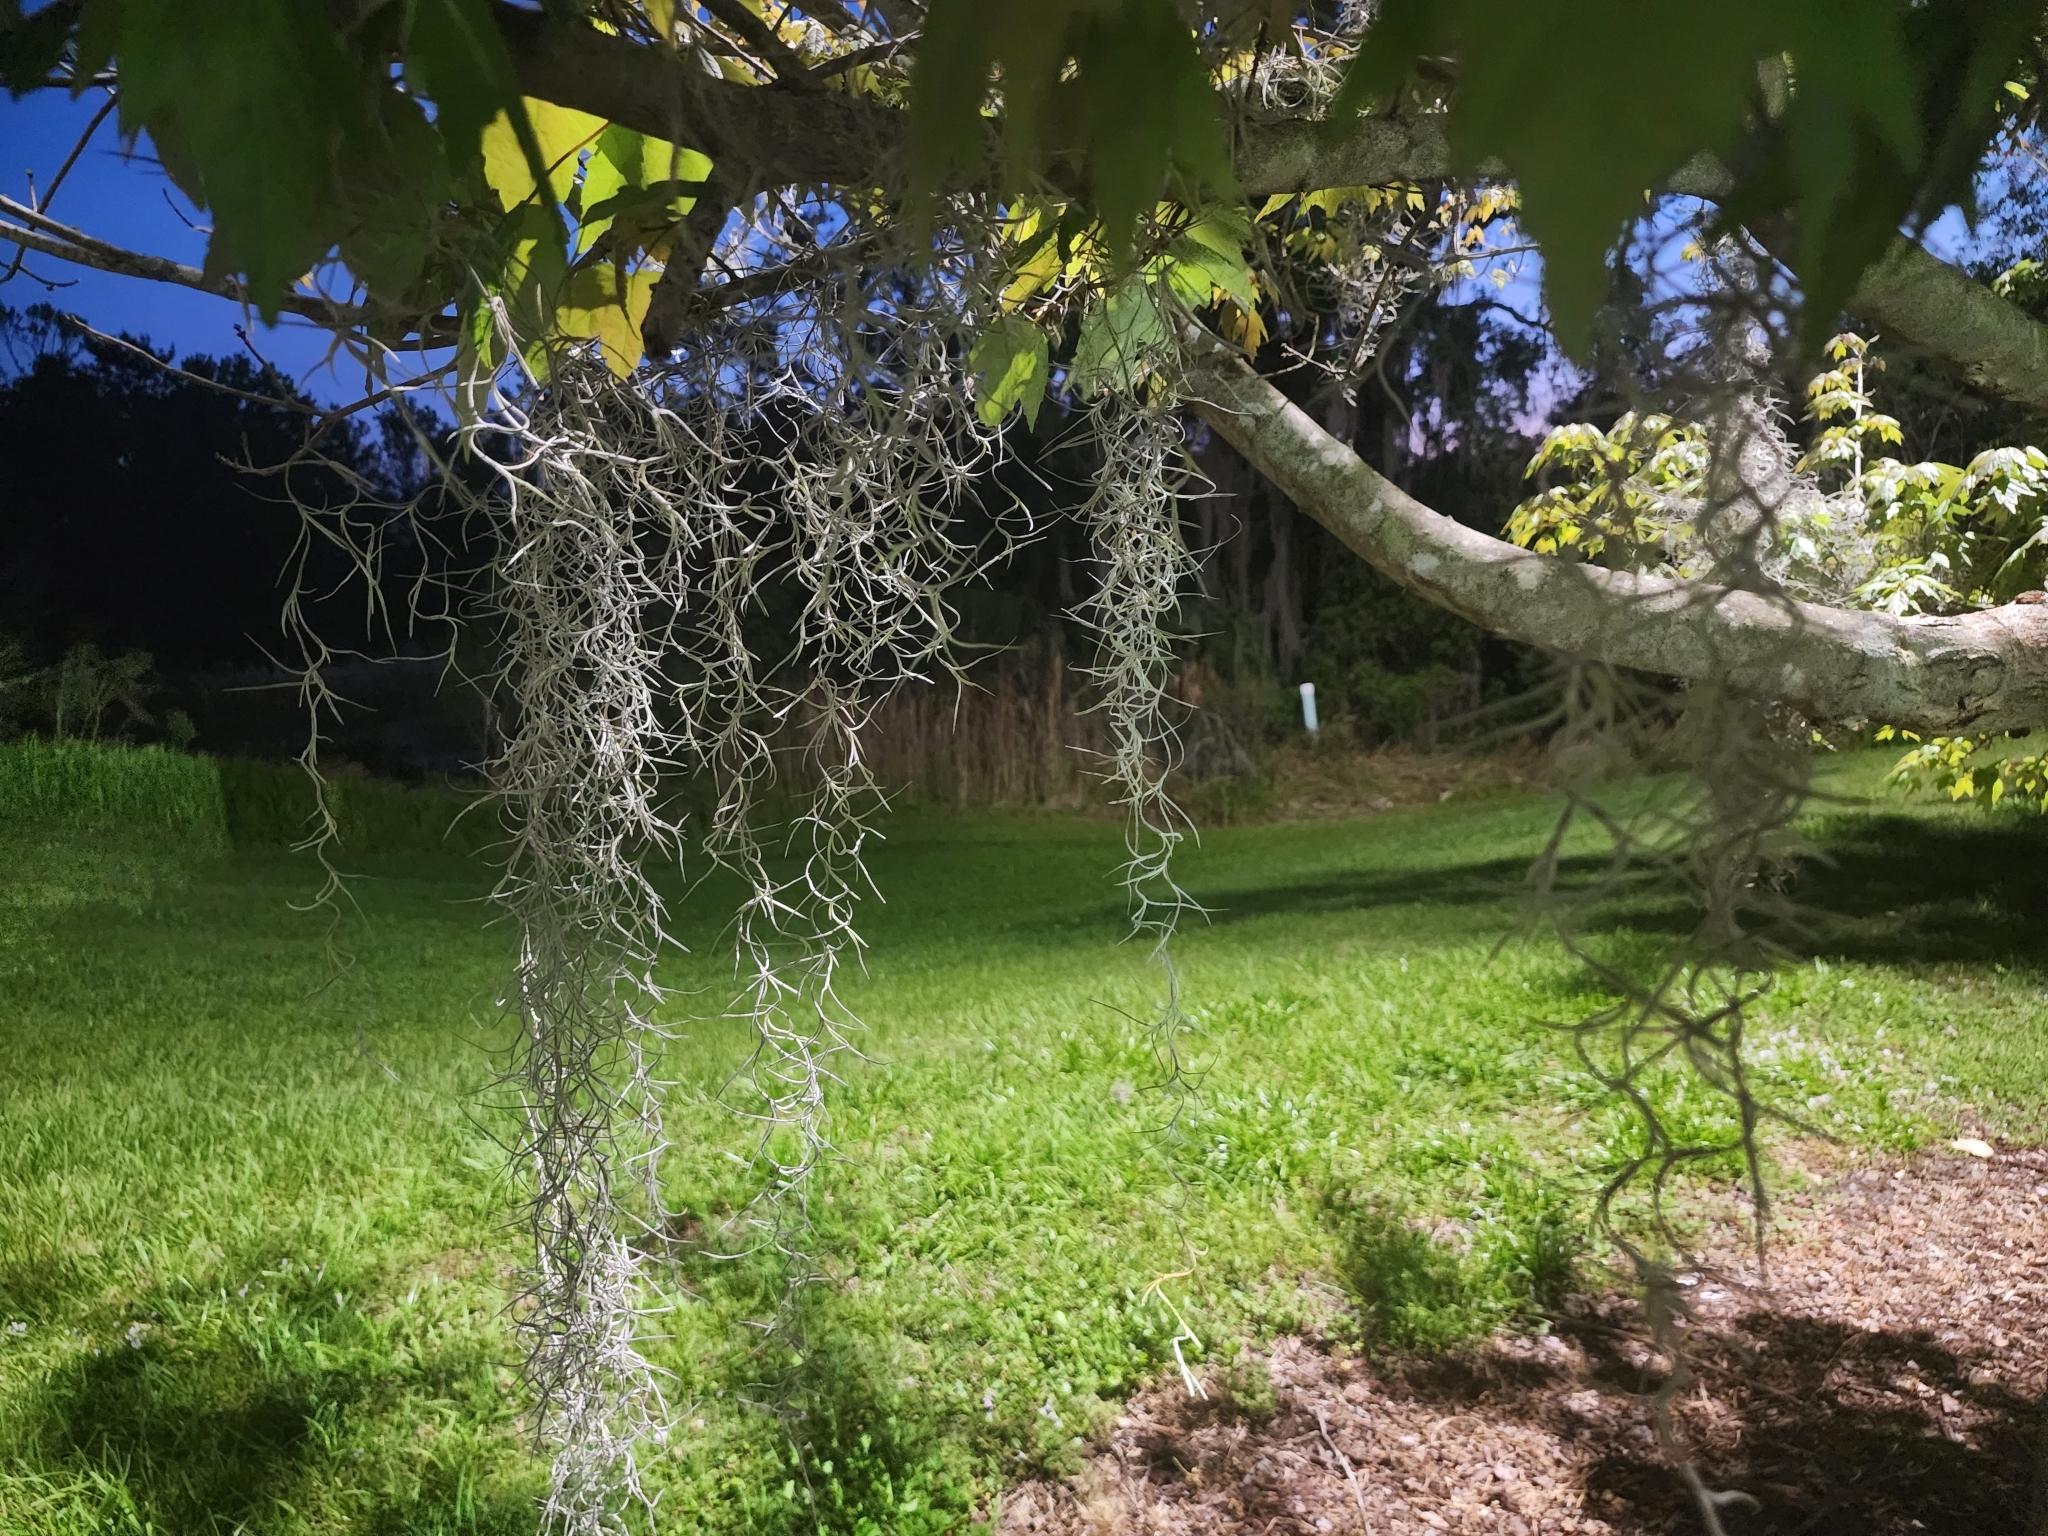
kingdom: Plantae
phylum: Tracheophyta
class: Liliopsida
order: Poales
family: Bromeliaceae
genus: Tillandsia
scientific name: Tillandsia usneoides
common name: Spanish moss
